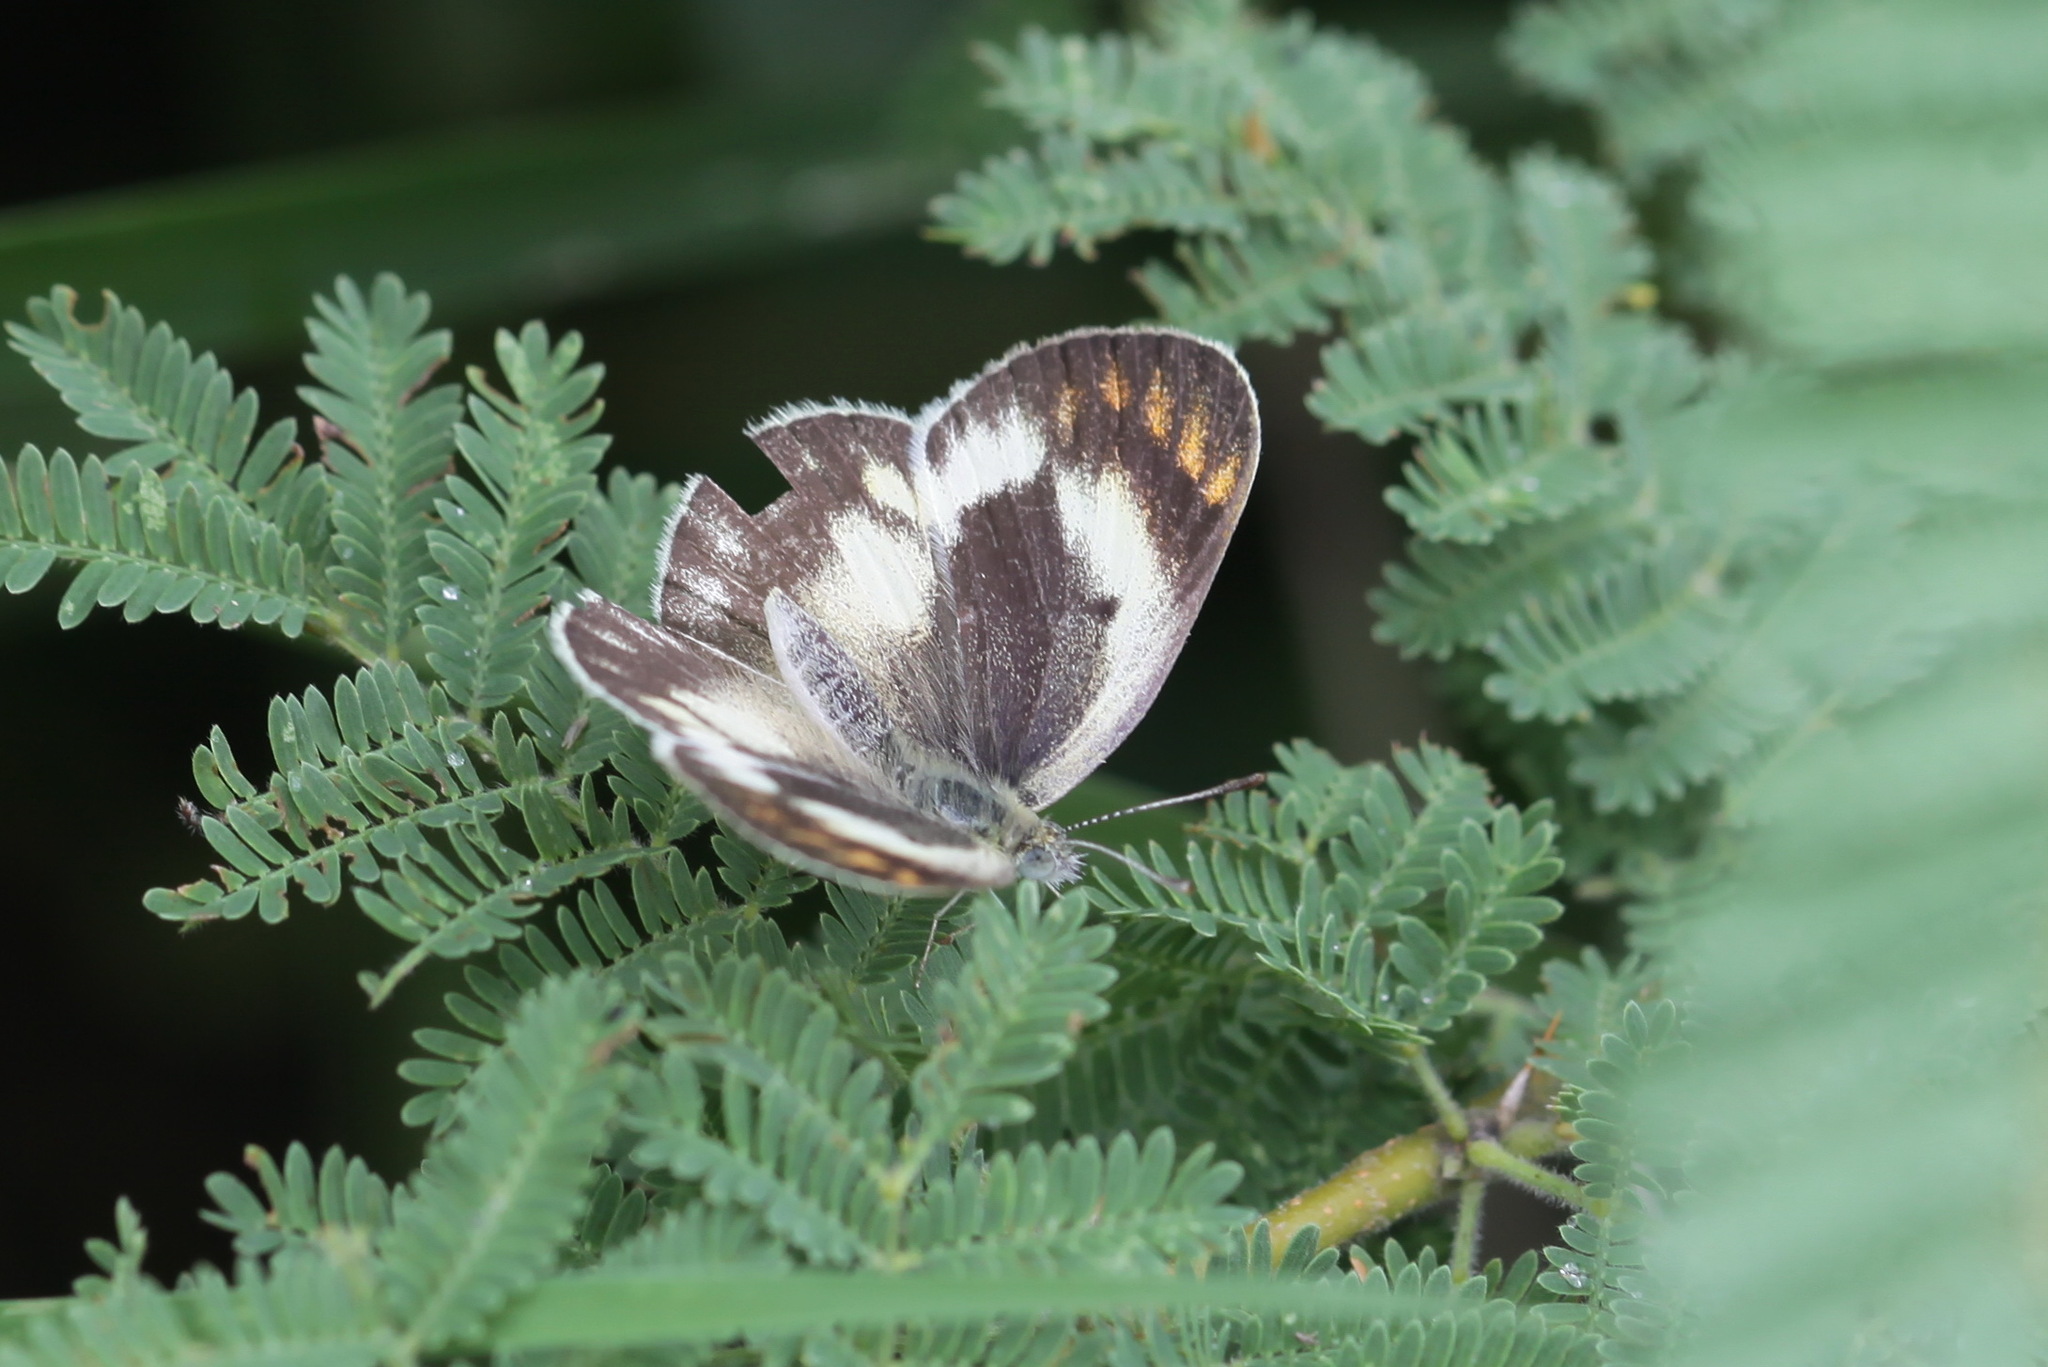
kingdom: Animalia
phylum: Arthropoda
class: Insecta
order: Lepidoptera
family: Pieridae
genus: Colotis
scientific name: Colotis evagore
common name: Desert orange-tip
